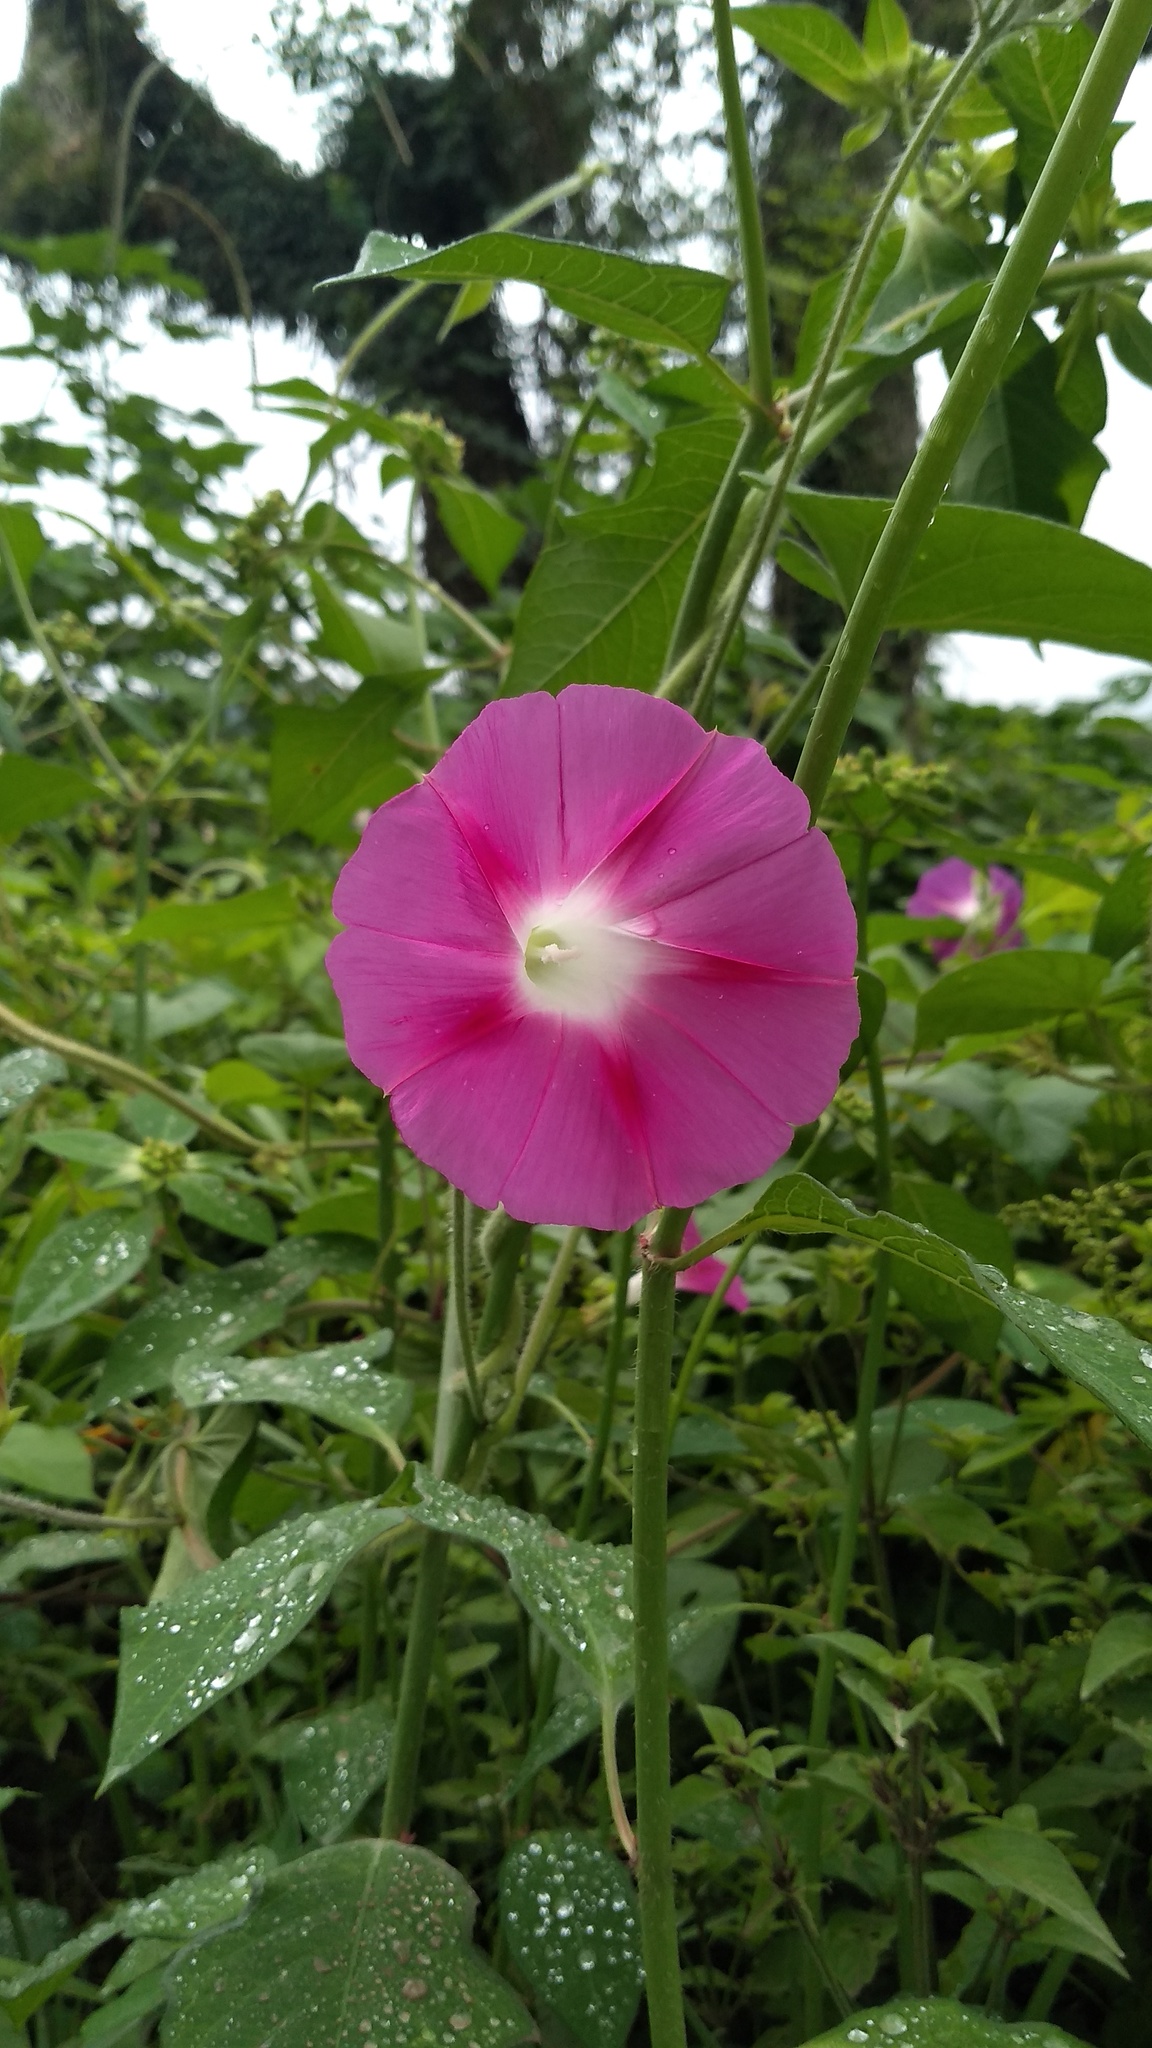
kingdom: Plantae
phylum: Tracheophyta
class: Magnoliopsida
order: Solanales
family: Convolvulaceae
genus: Ipomoea
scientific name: Ipomoea purpurea
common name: Common morning-glory
